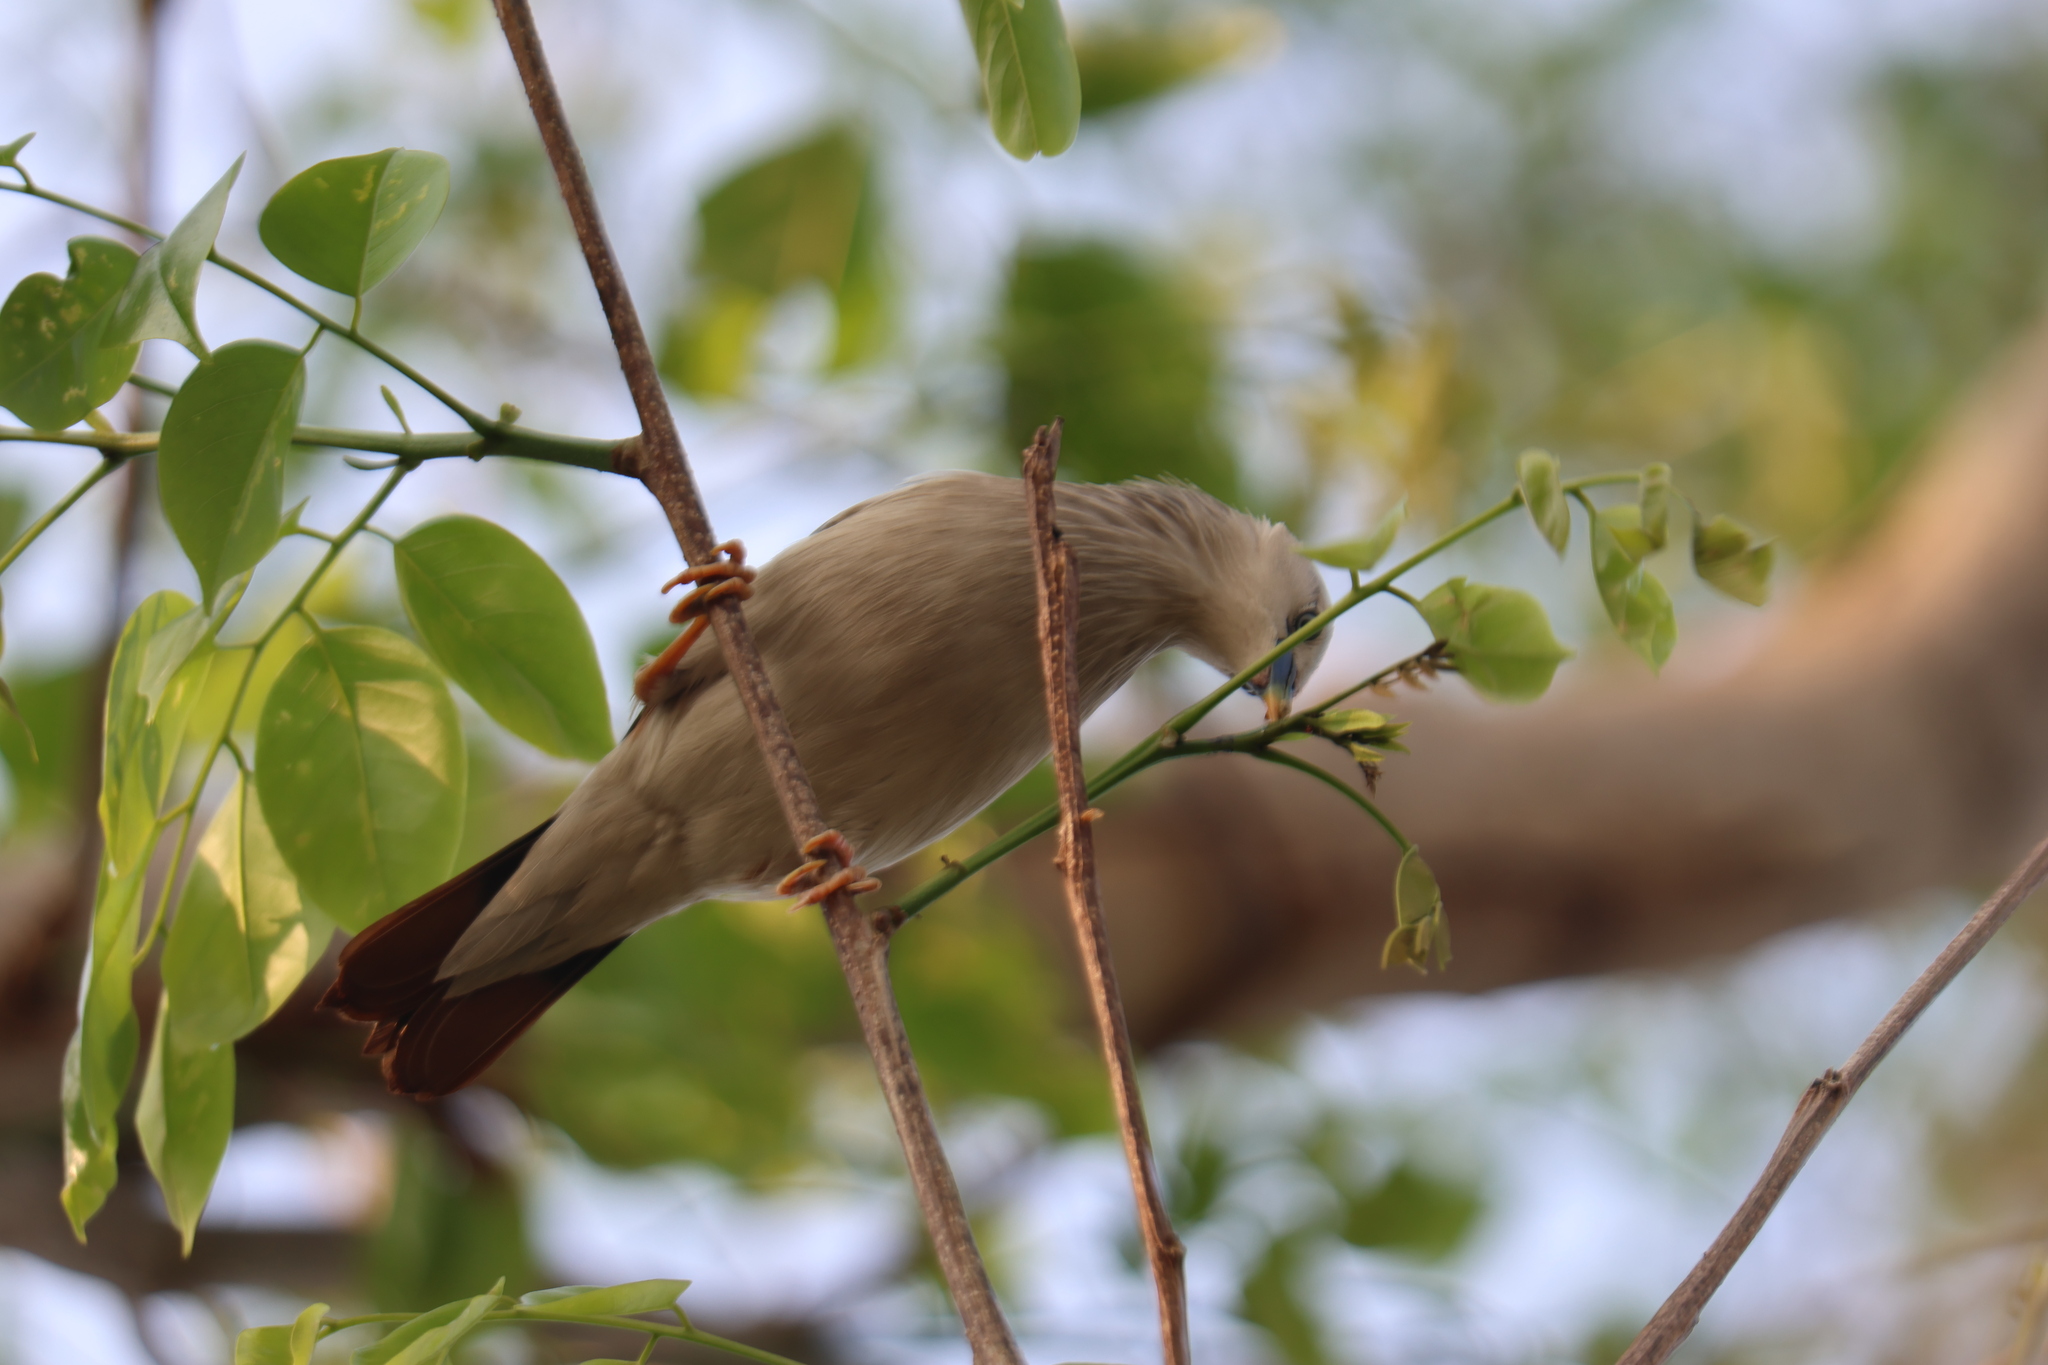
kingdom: Animalia
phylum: Chordata
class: Aves
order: Passeriformes
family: Sturnidae
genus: Sturnia
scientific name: Sturnia malabarica
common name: Chestnut-tailed starling
